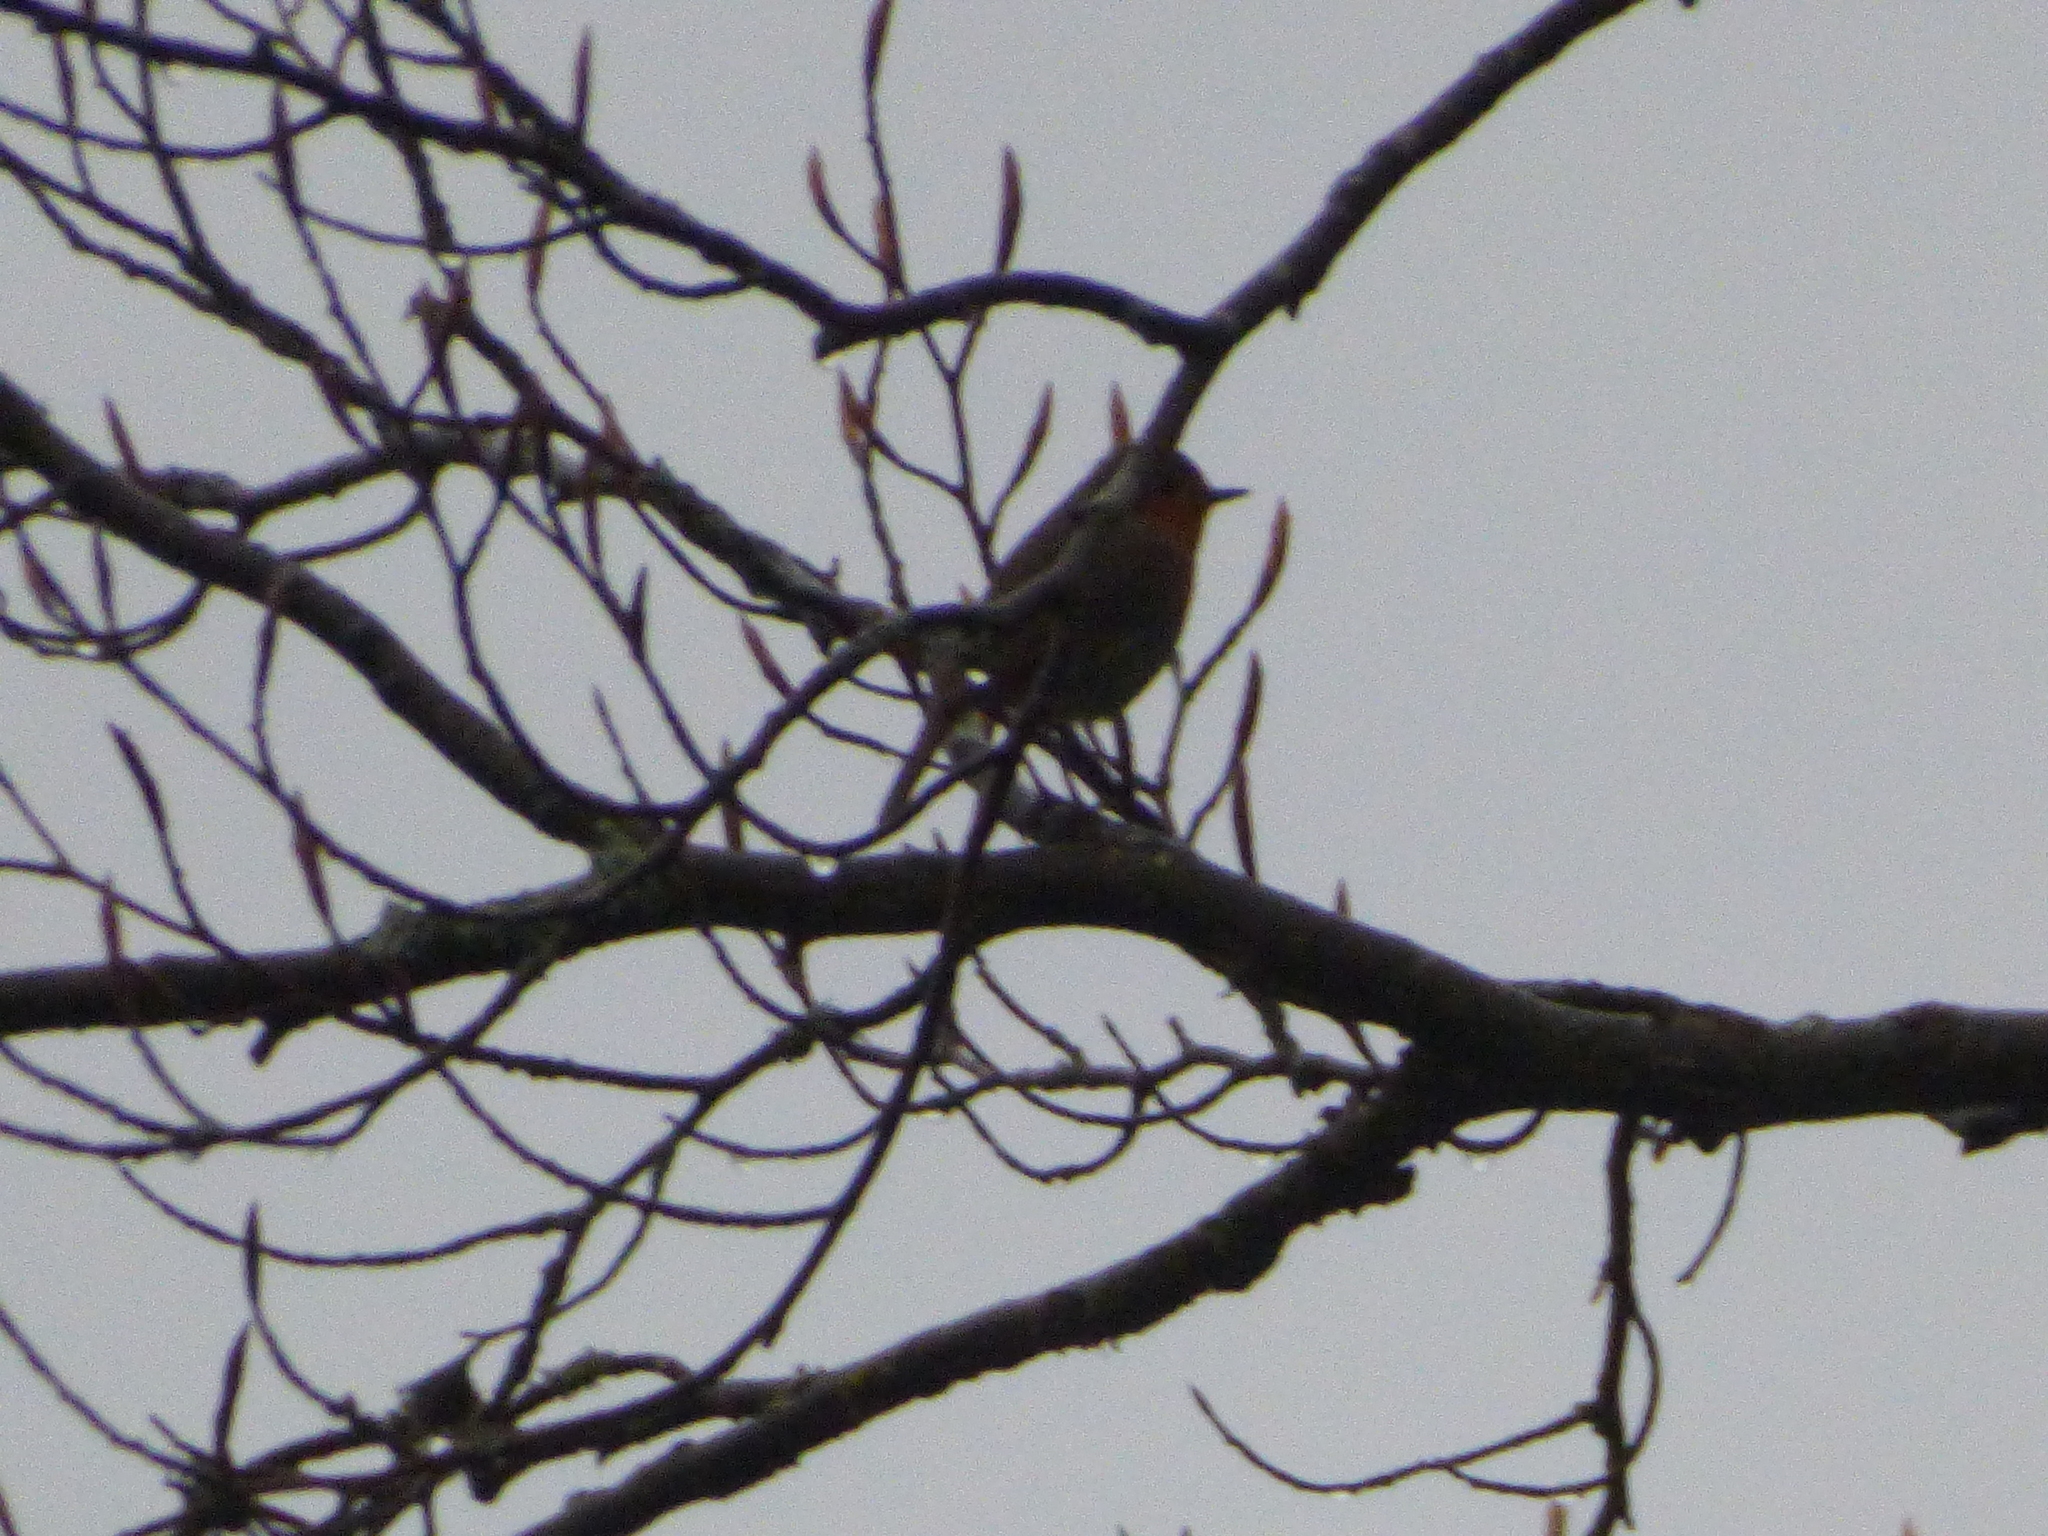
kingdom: Animalia
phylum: Chordata
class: Aves
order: Passeriformes
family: Muscicapidae
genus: Erithacus
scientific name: Erithacus rubecula
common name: European robin
